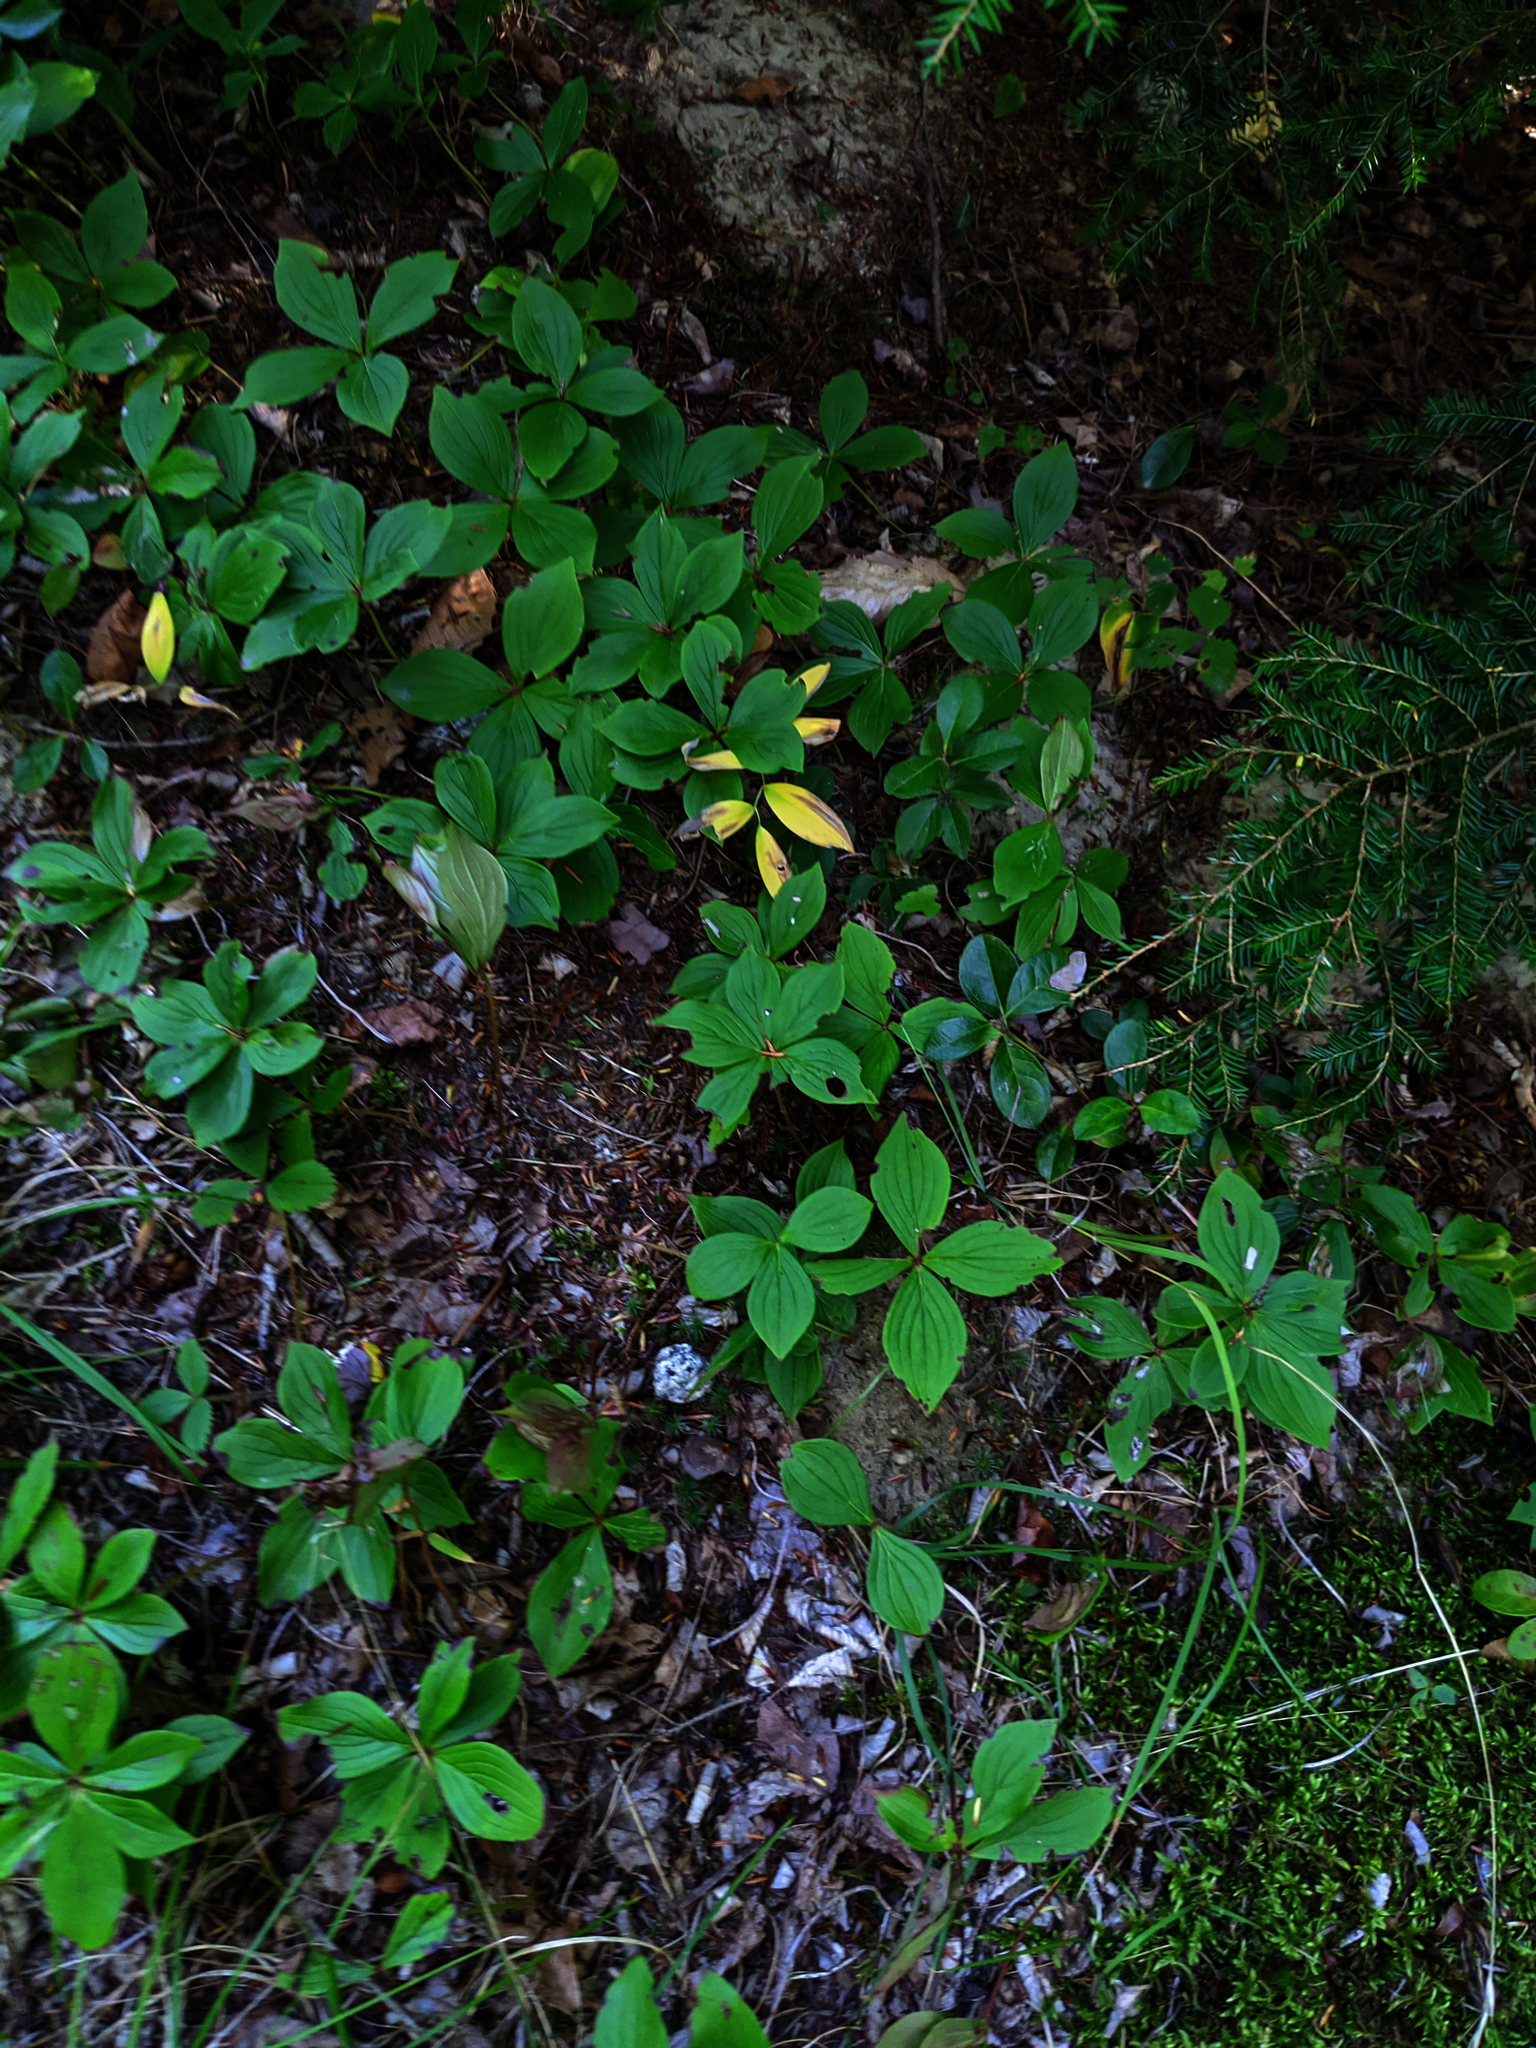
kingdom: Plantae
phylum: Tracheophyta
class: Magnoliopsida
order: Cornales
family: Cornaceae
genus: Cornus
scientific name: Cornus canadensis
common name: Creeping dogwood
